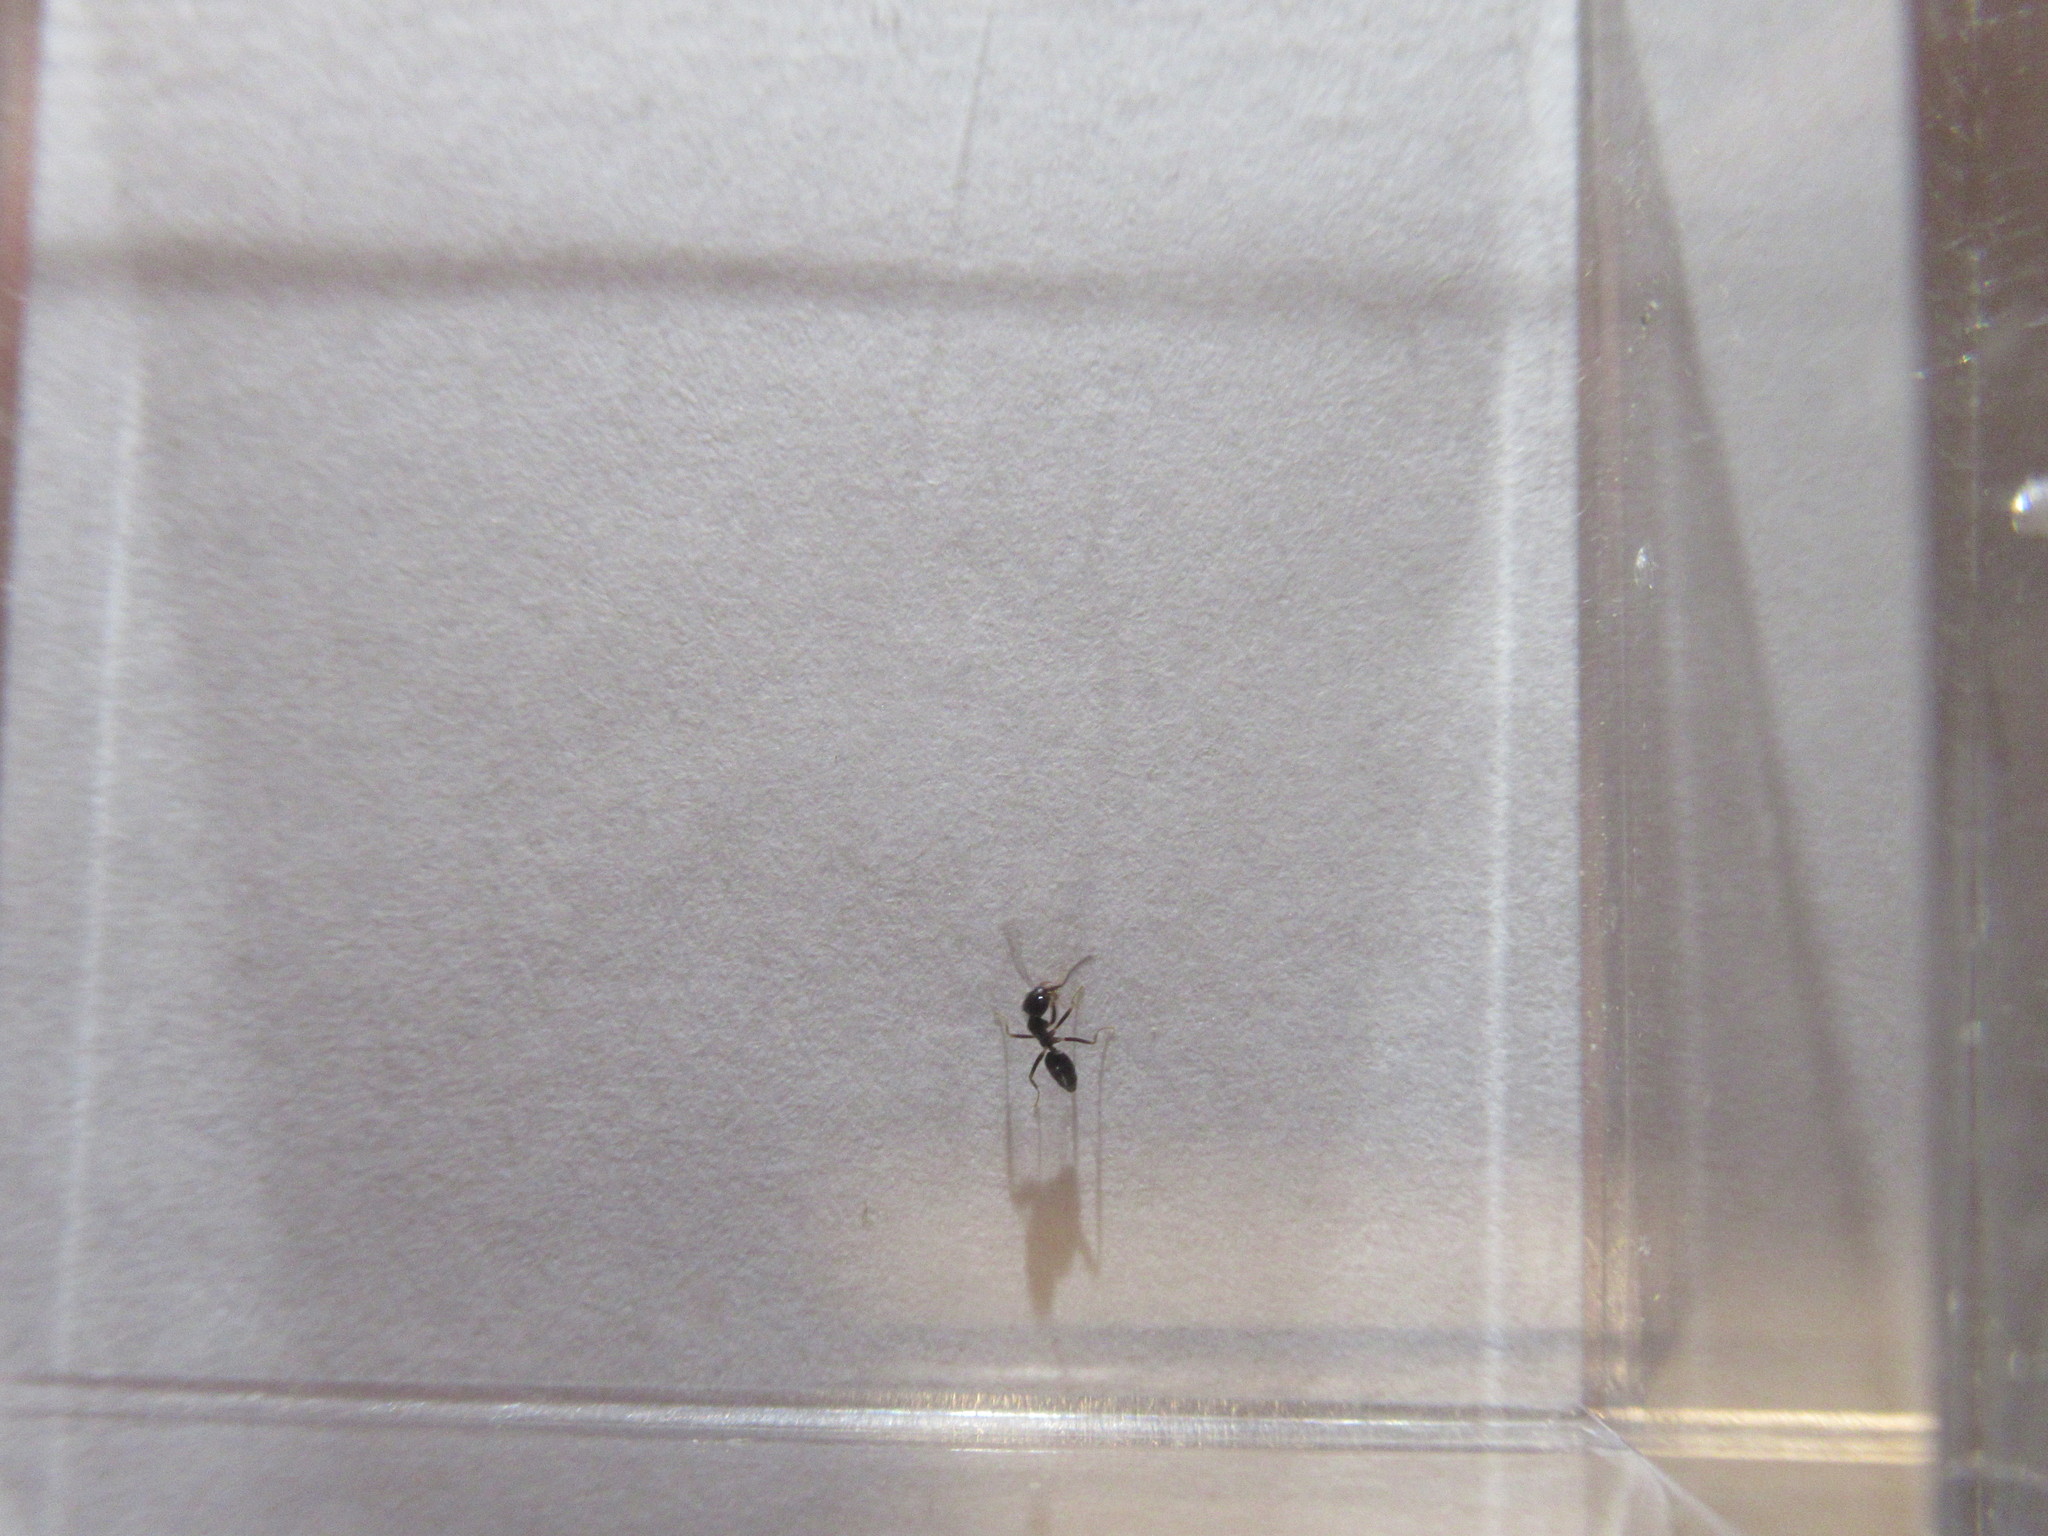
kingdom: Animalia
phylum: Arthropoda
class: Insecta
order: Hymenoptera
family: Formicidae
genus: Tapinoma
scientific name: Tapinoma sessile
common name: Odorous house ant
